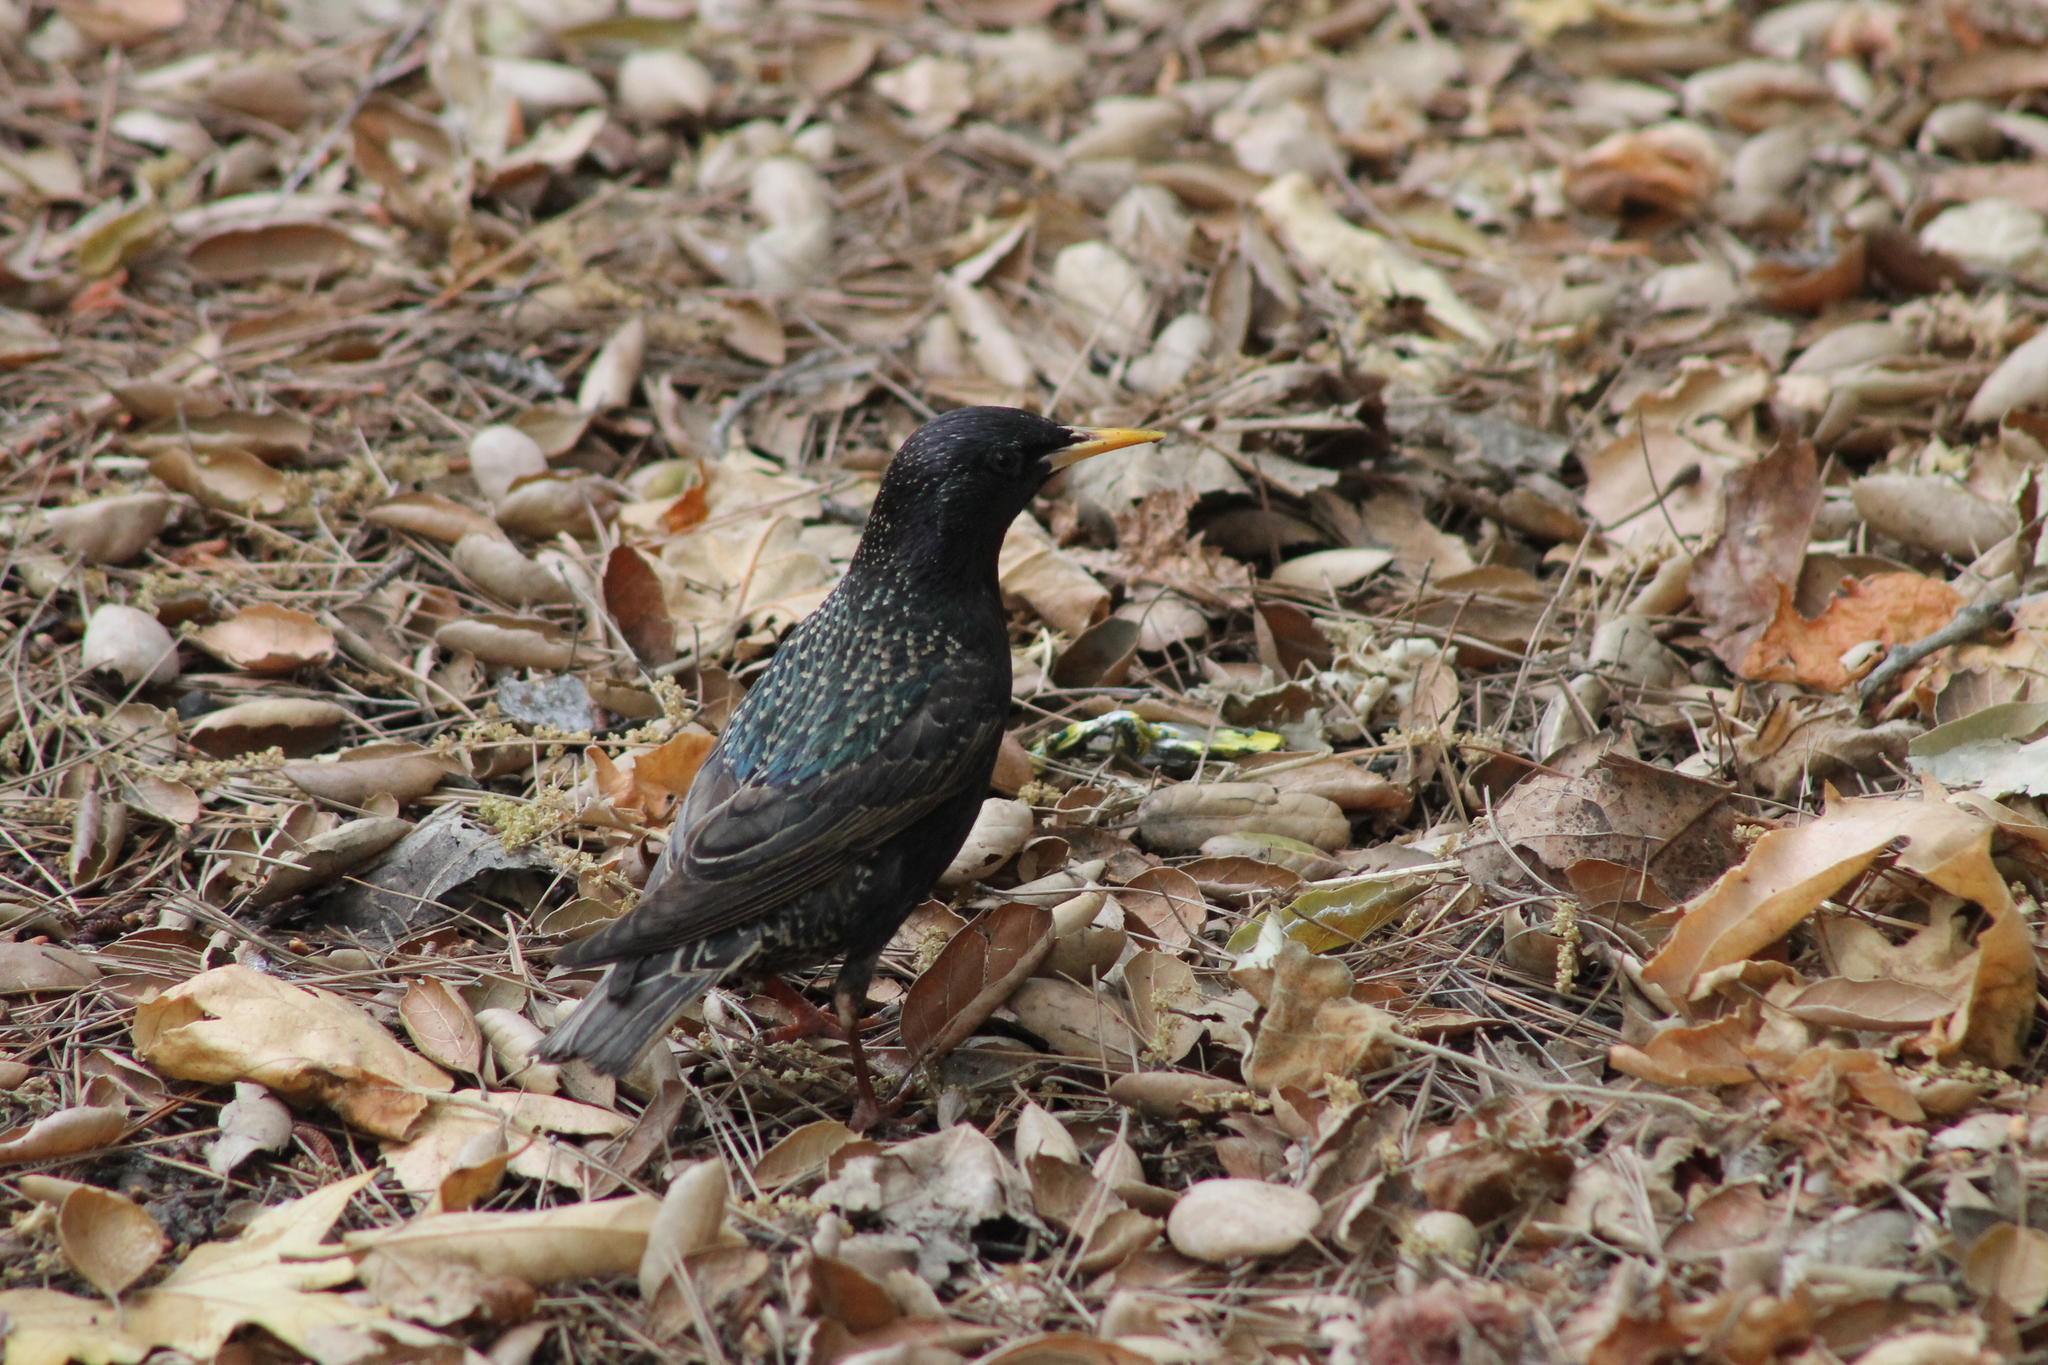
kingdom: Animalia
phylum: Chordata
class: Aves
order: Passeriformes
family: Sturnidae
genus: Sturnus
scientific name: Sturnus vulgaris
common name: Common starling
